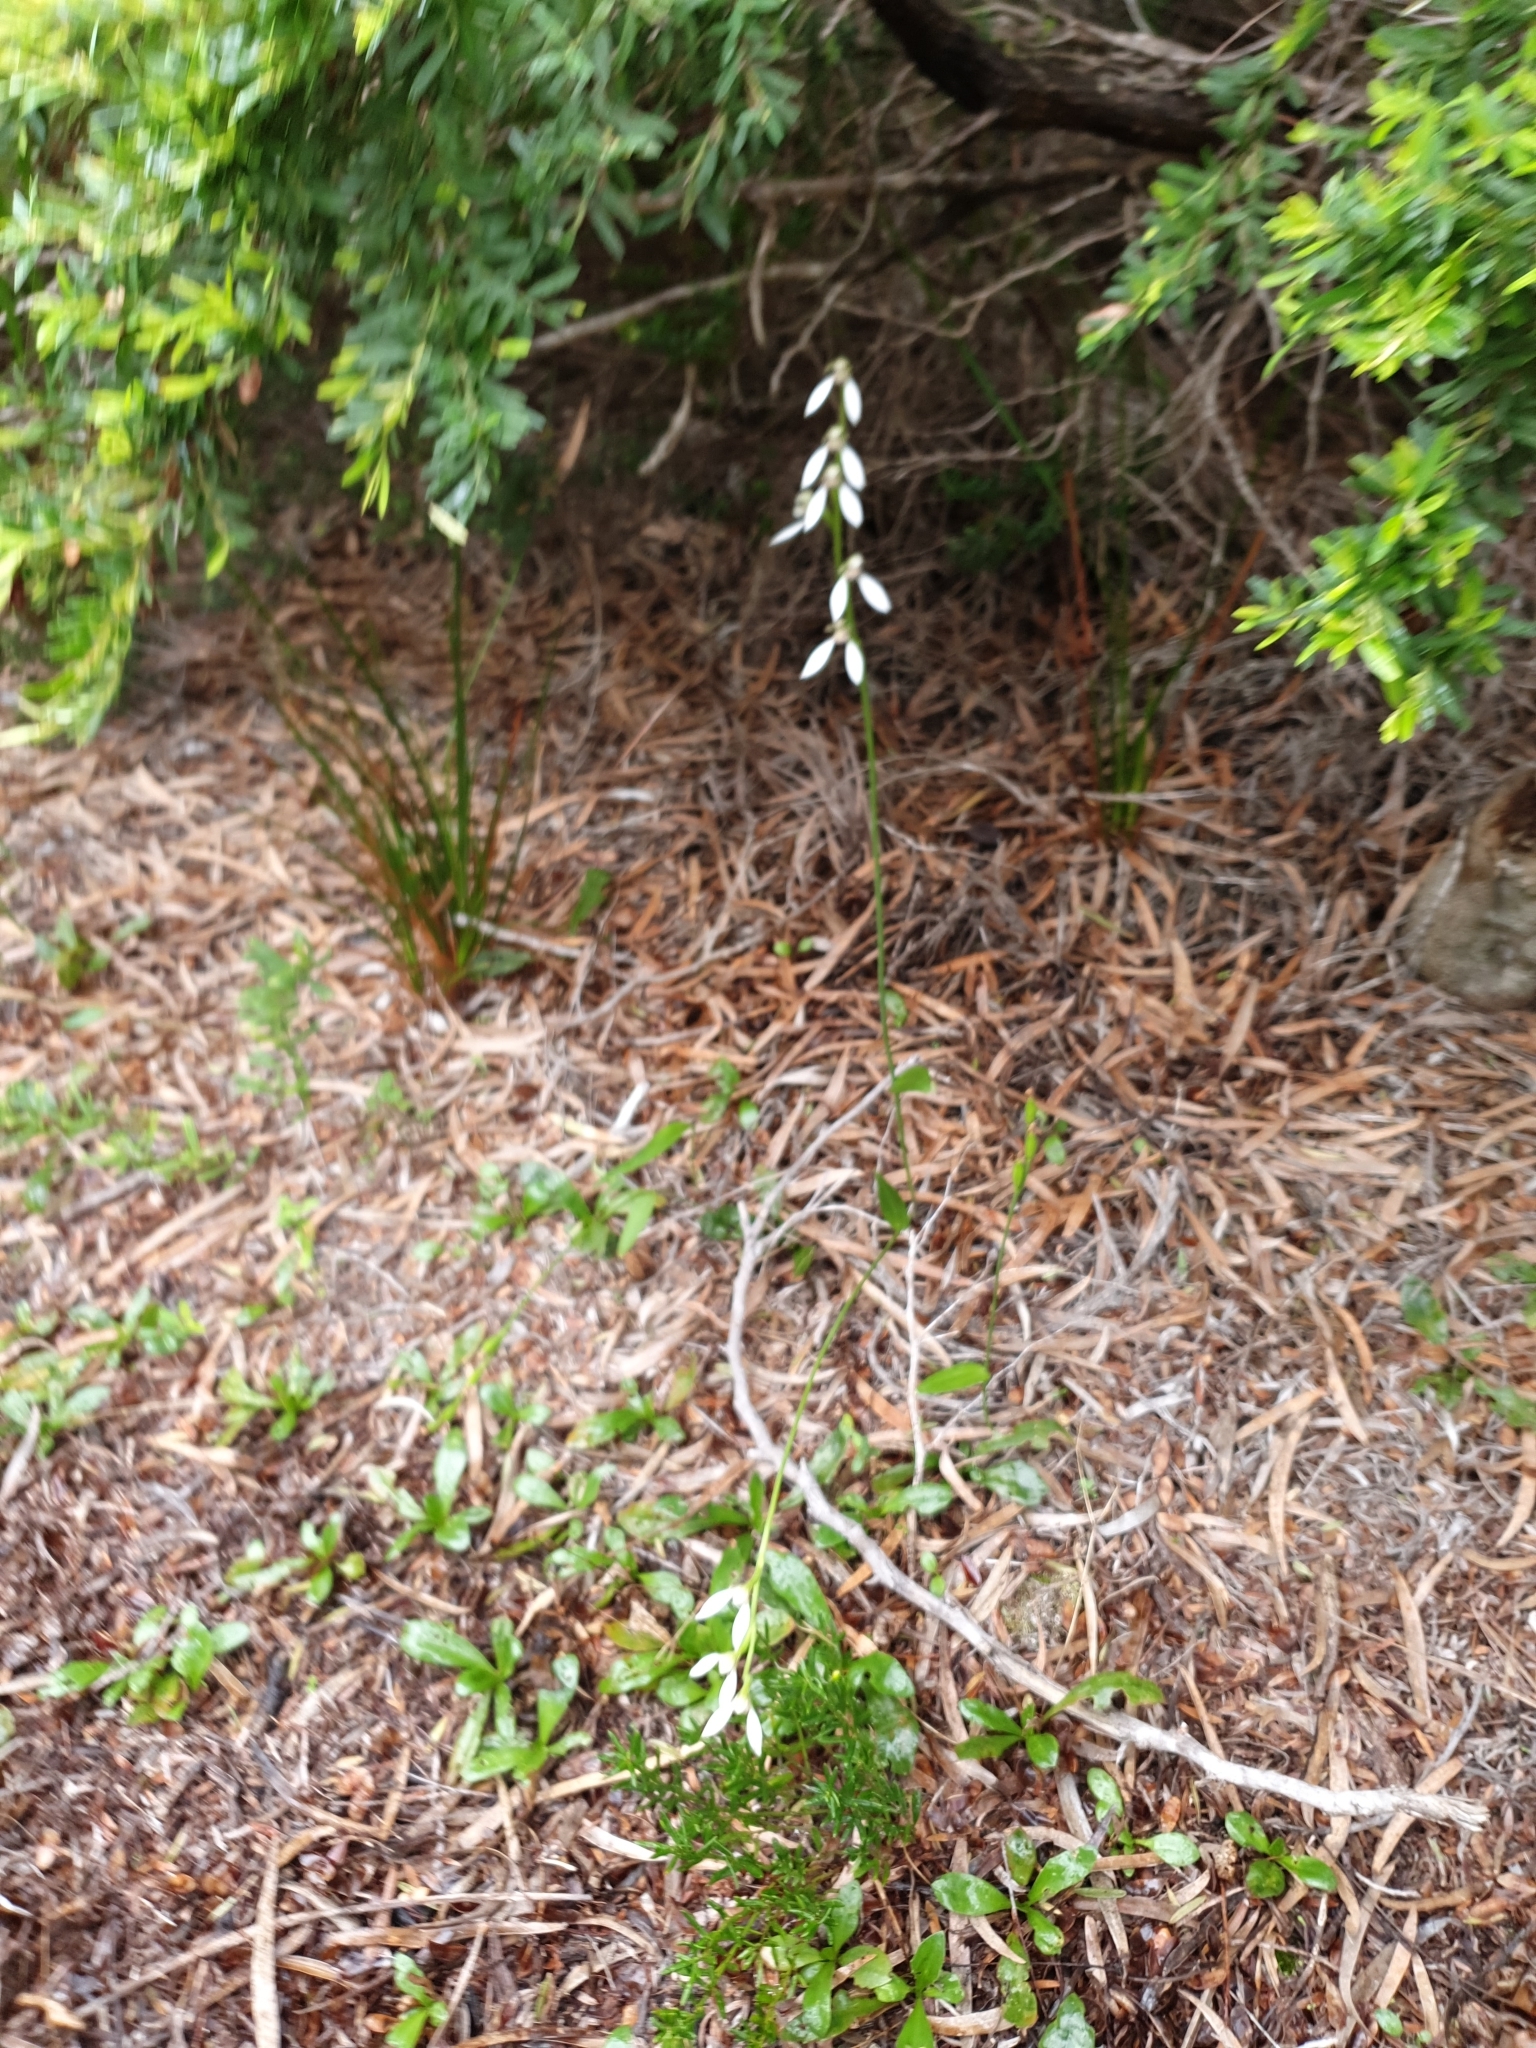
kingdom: Plantae
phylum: Tracheophyta
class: Liliopsida
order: Asparagales
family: Orchidaceae
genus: Eriochilus
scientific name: Eriochilus dilatatus
